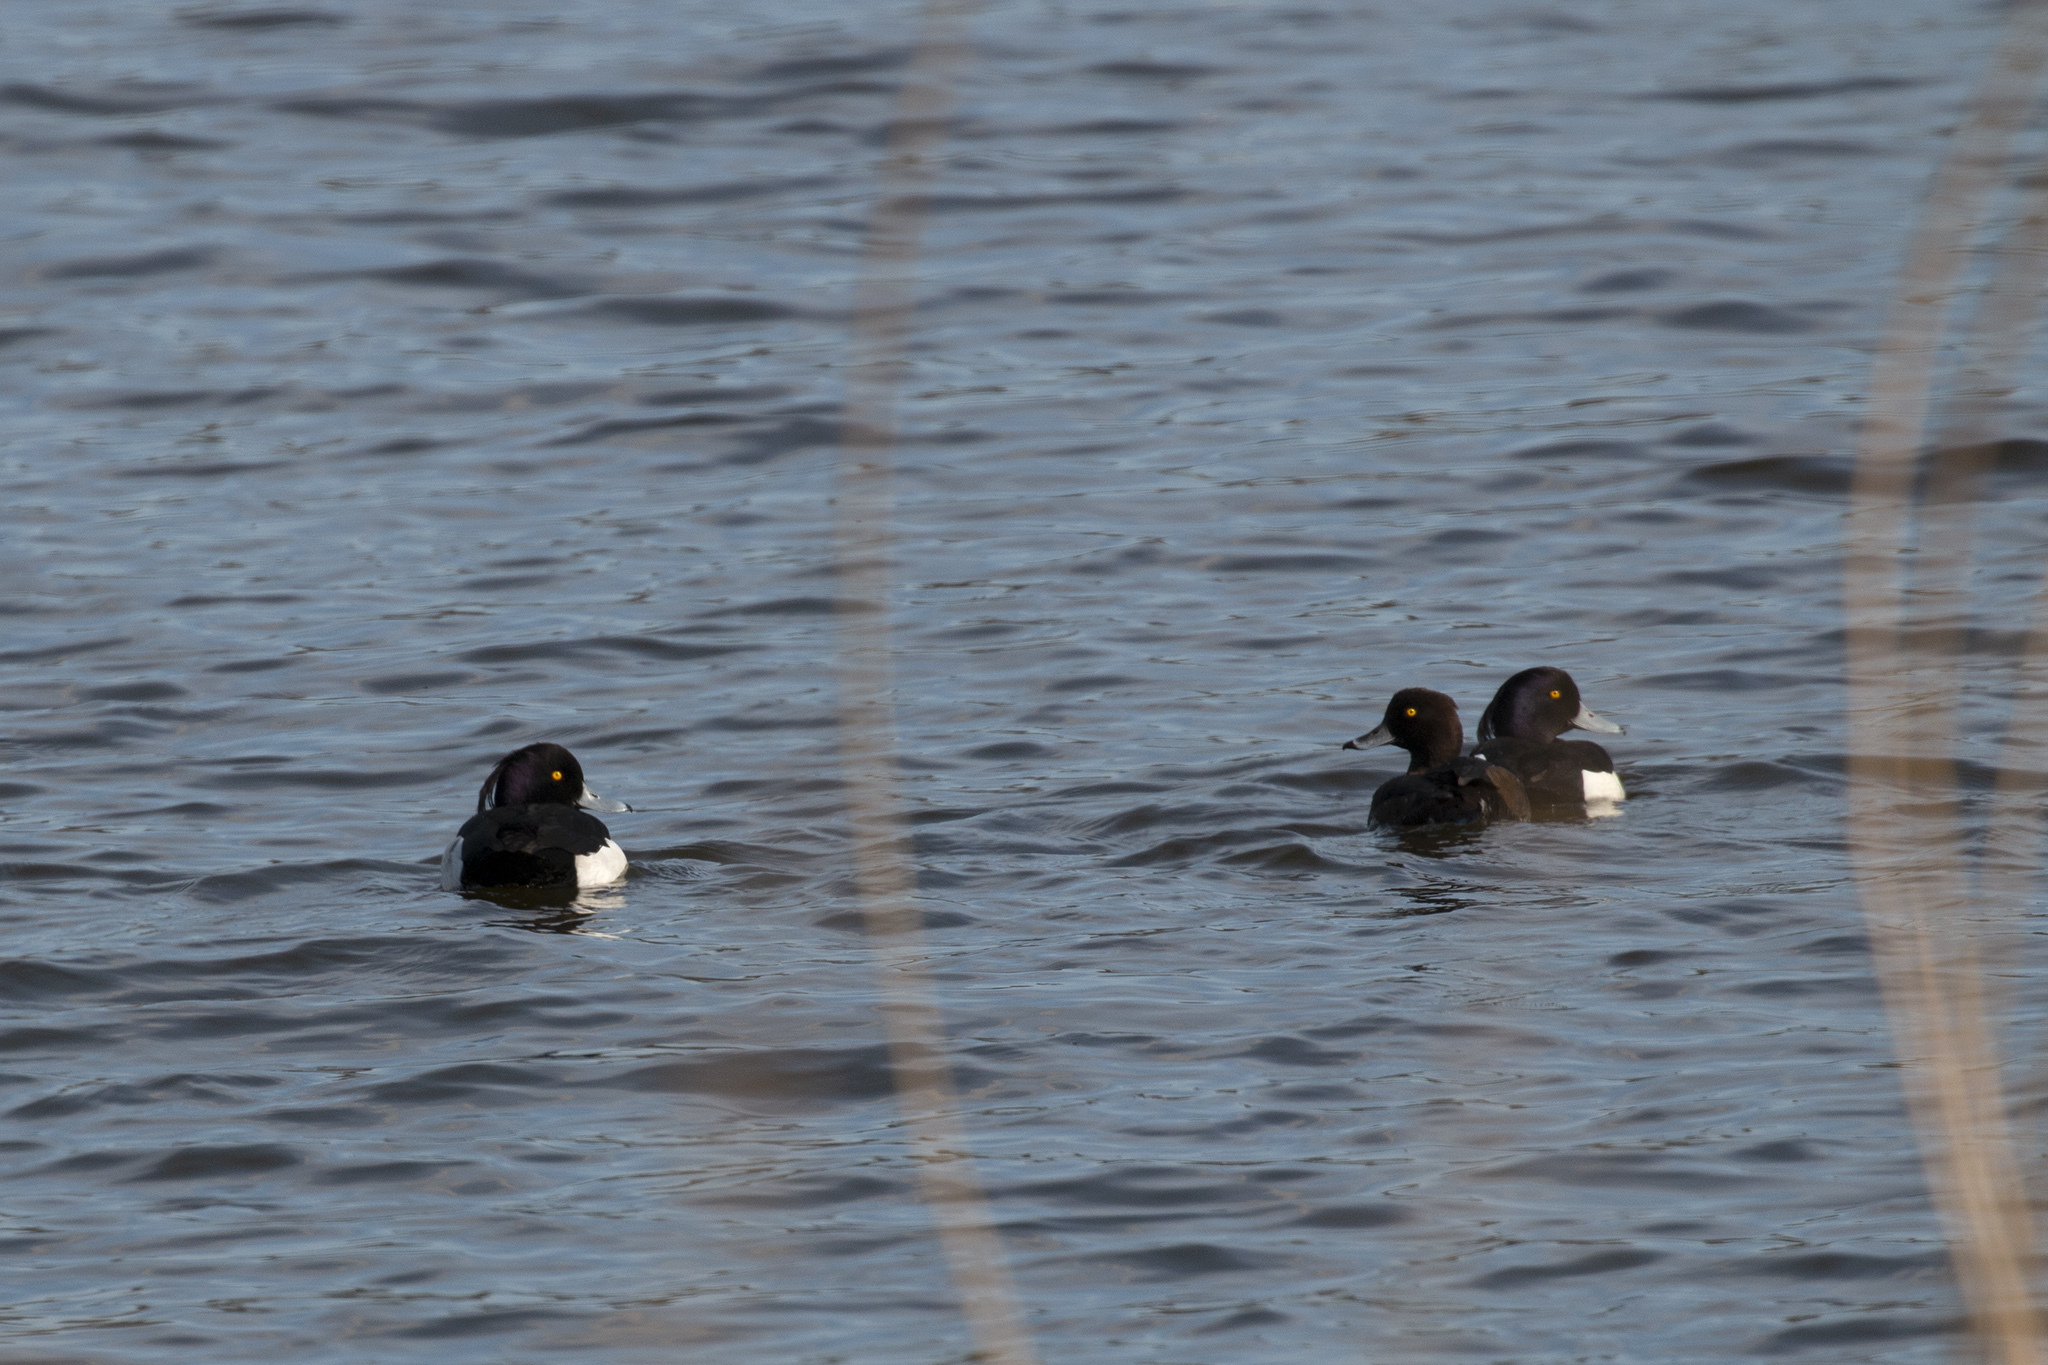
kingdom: Animalia
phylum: Chordata
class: Aves
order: Anseriformes
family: Anatidae
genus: Aythya
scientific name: Aythya fuligula
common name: Tufted duck
